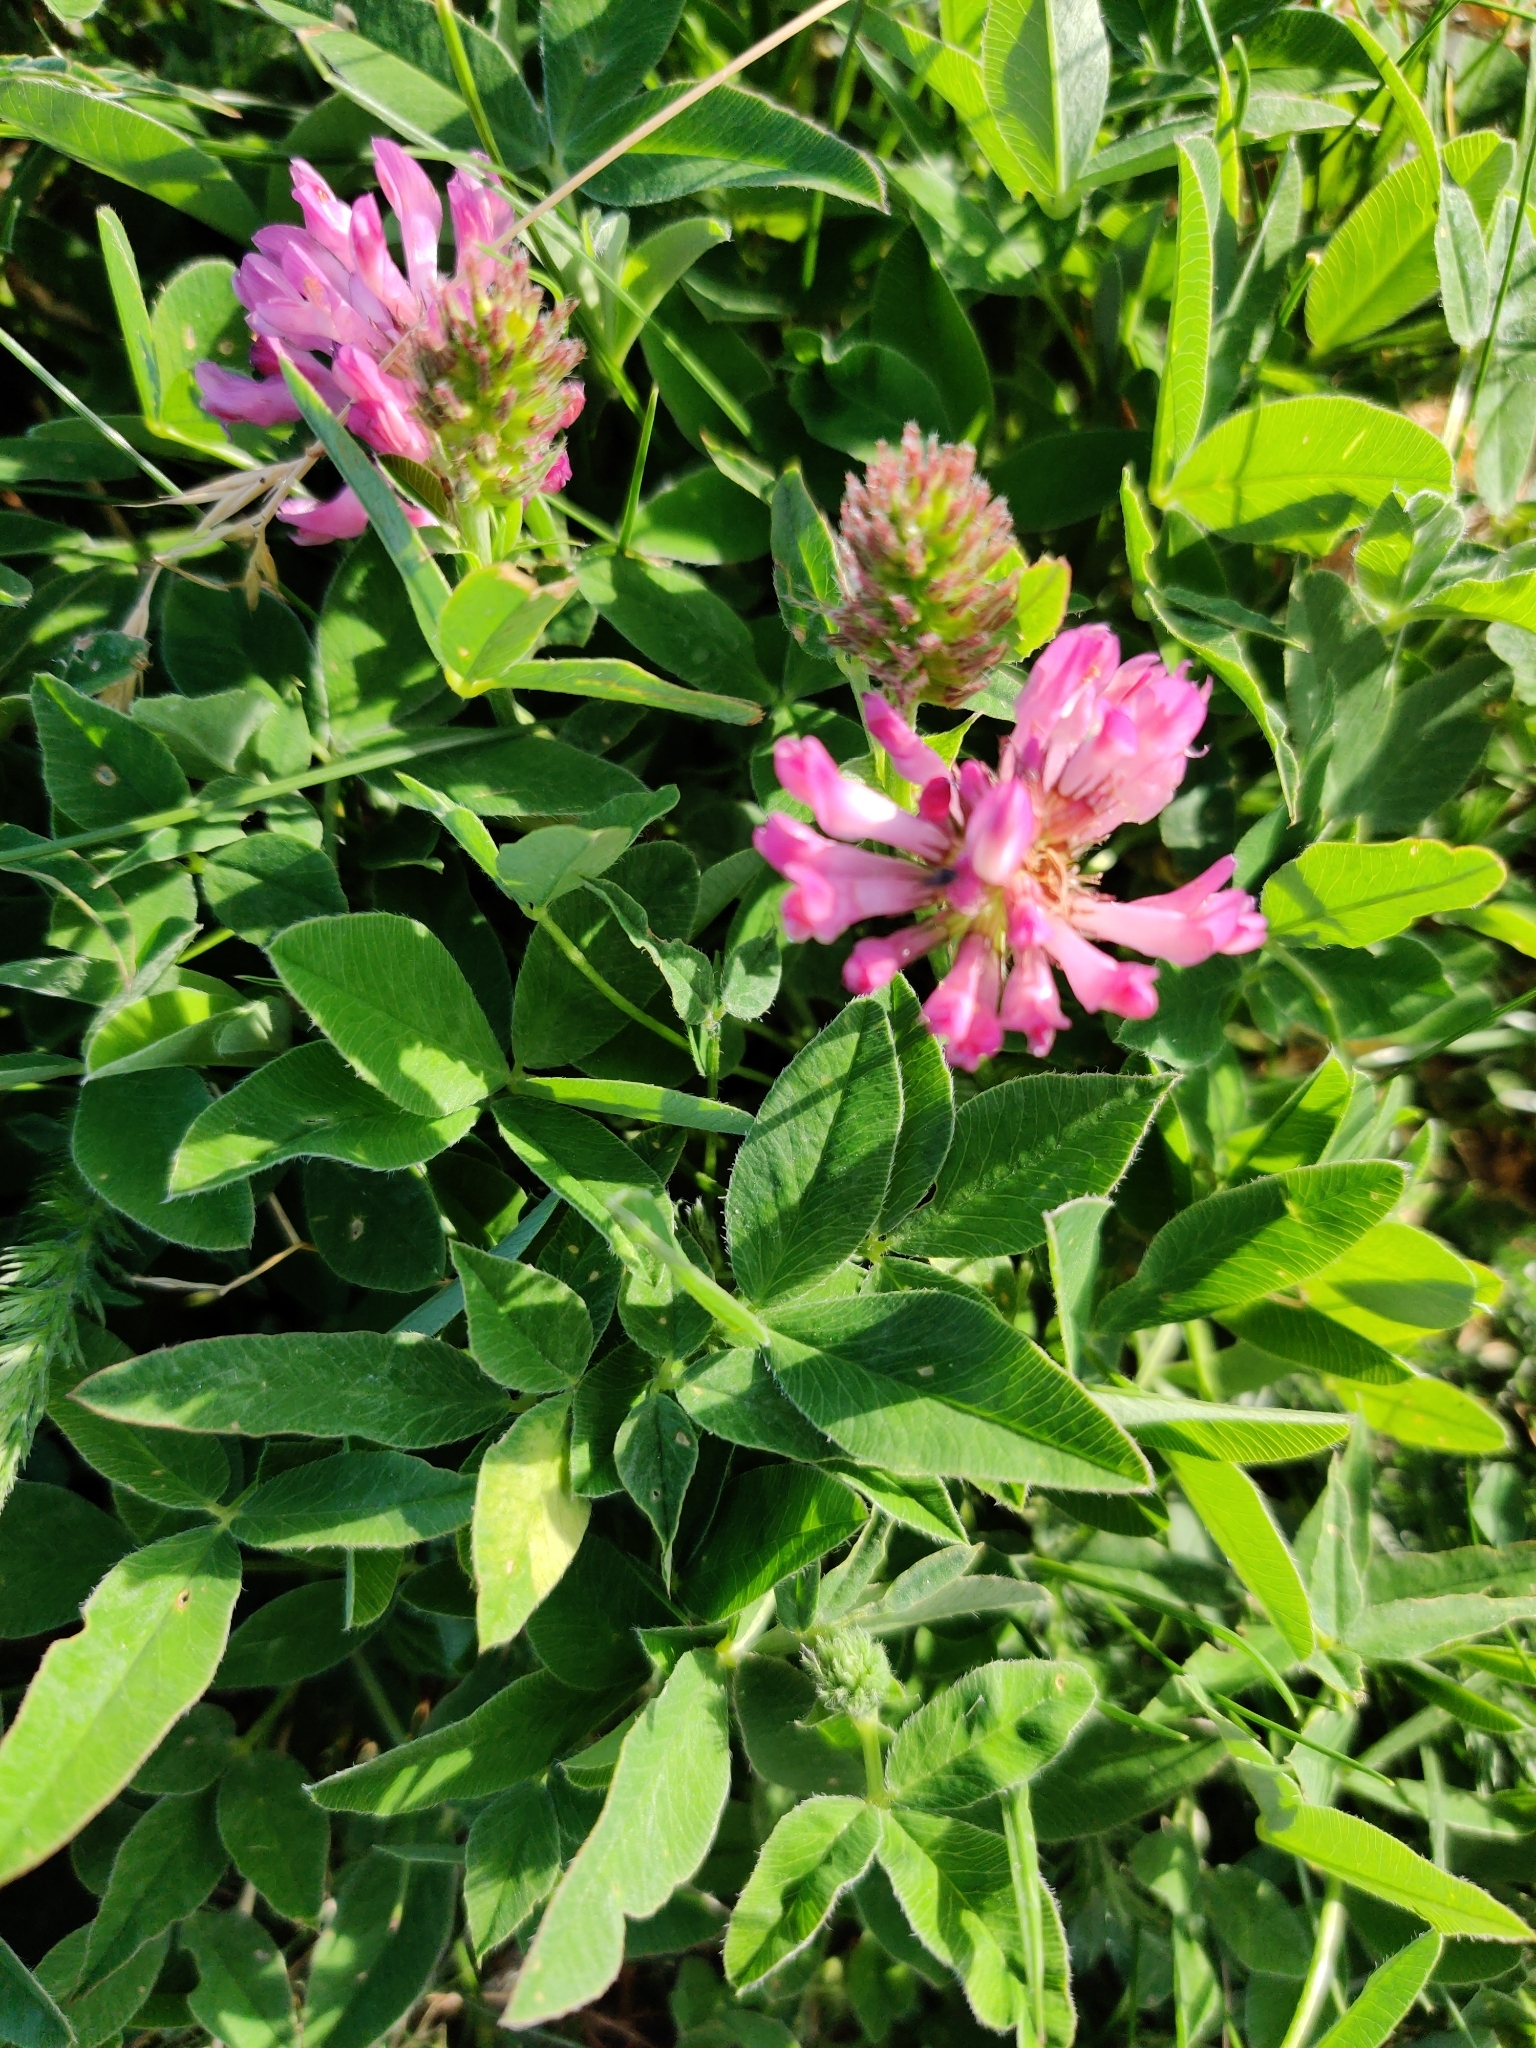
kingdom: Plantae
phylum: Tracheophyta
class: Magnoliopsida
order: Fabales
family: Fabaceae
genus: Trifolium
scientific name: Trifolium medium
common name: Zigzag clover
